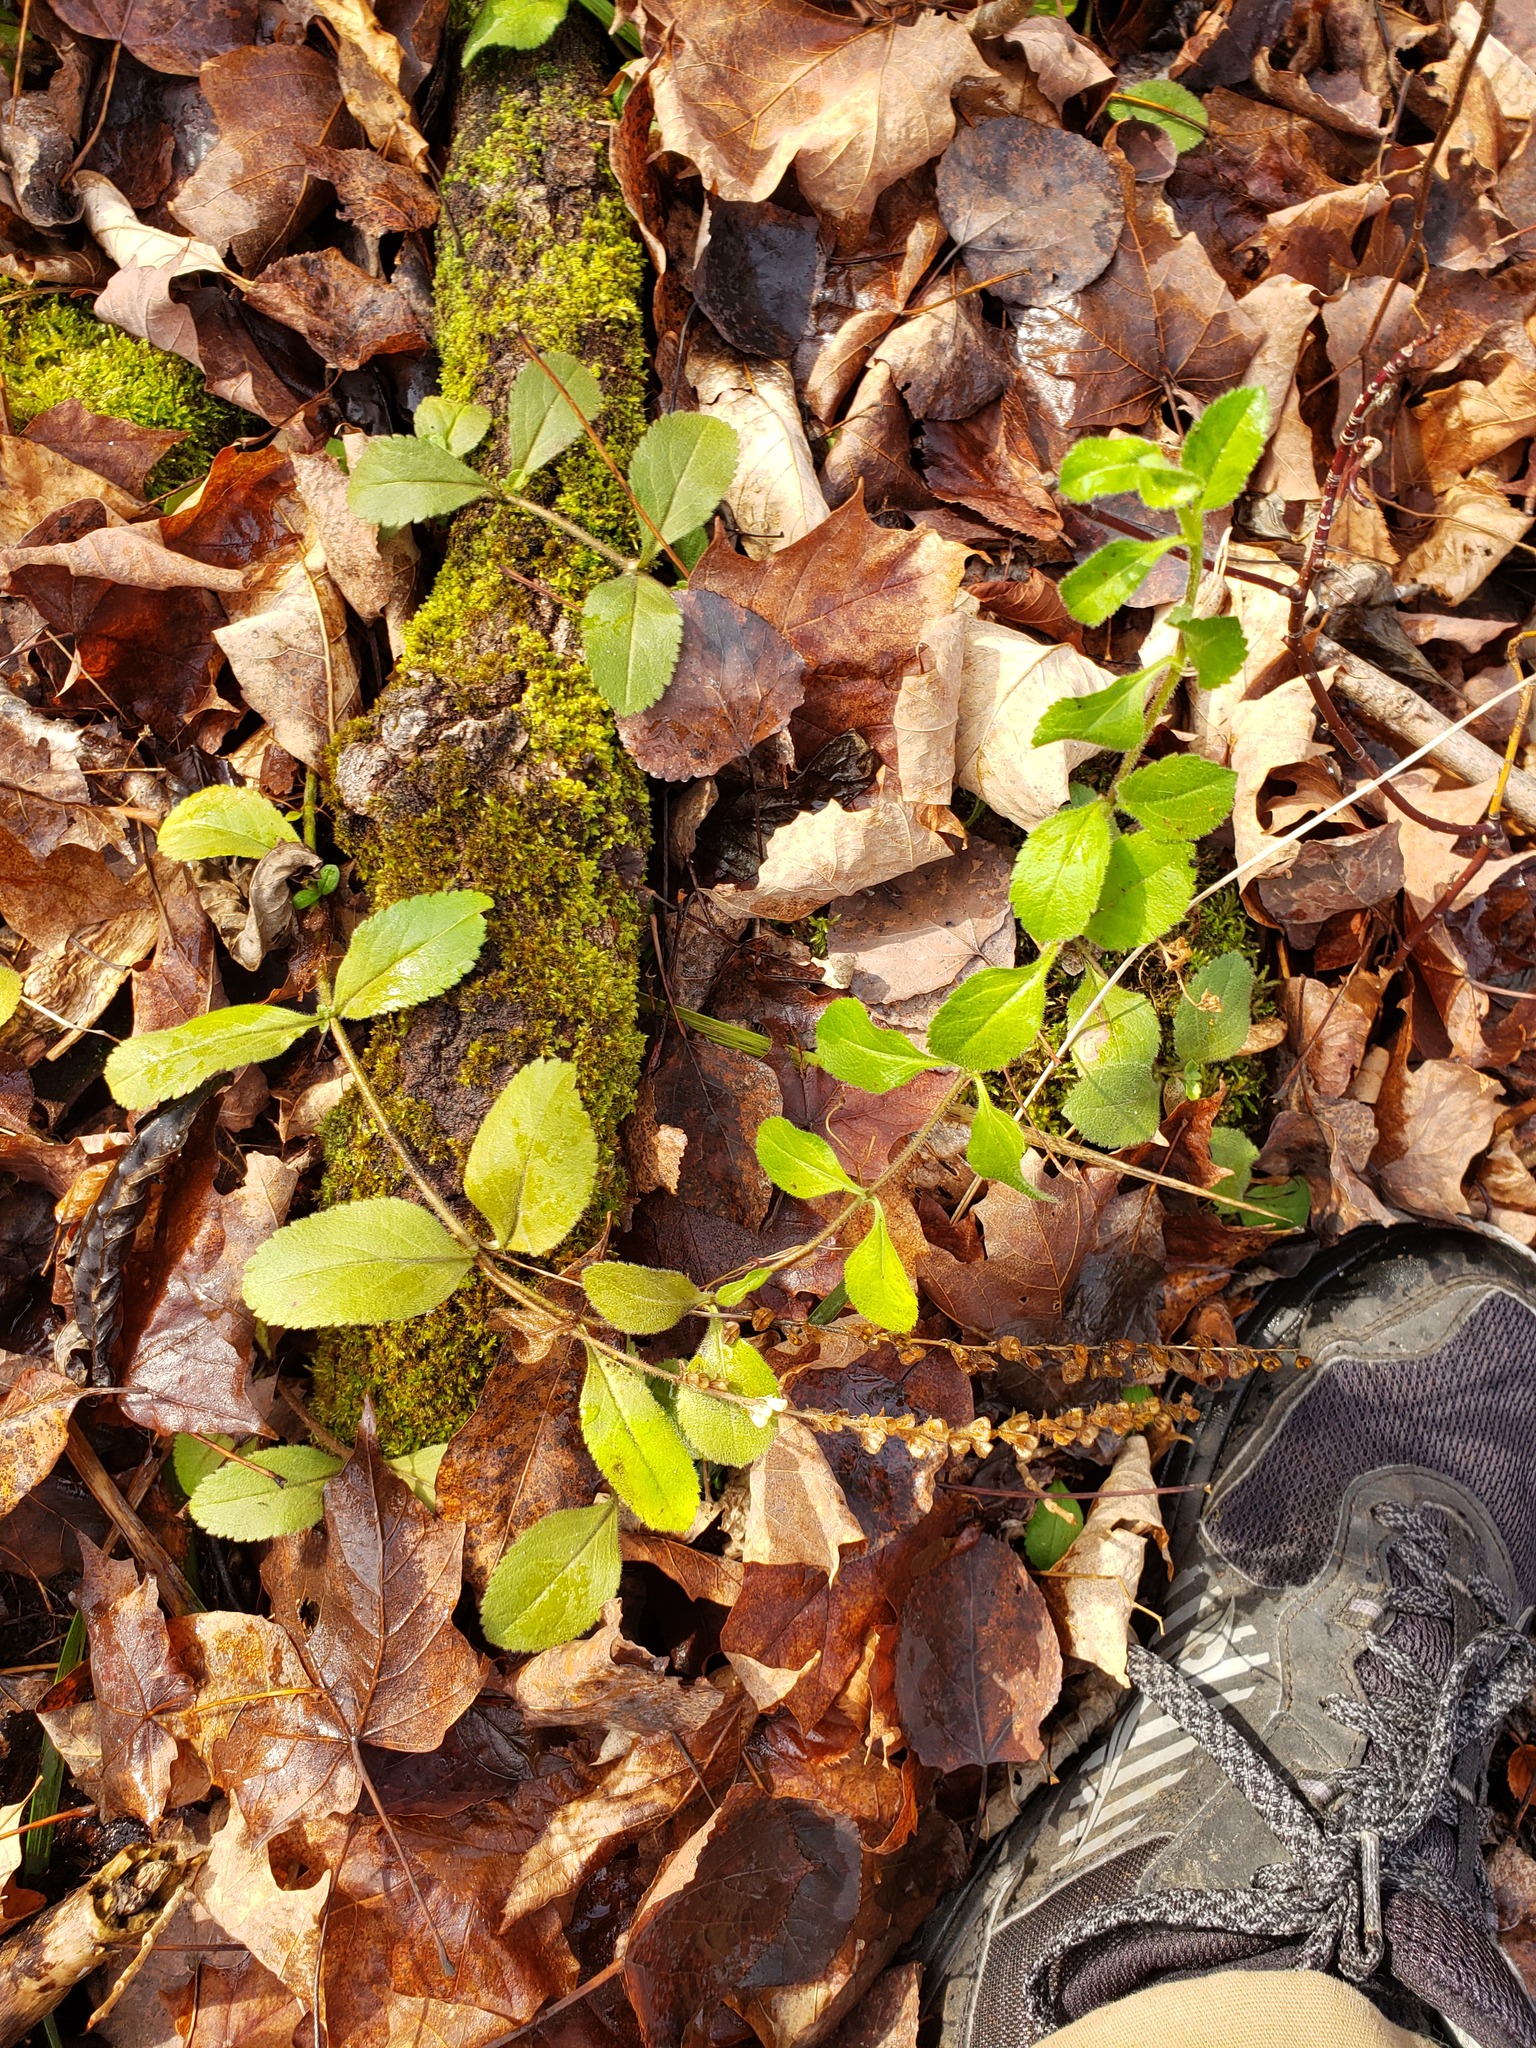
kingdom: Plantae
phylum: Tracheophyta
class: Magnoliopsida
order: Lamiales
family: Plantaginaceae
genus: Veronica
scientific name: Veronica officinalis
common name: Common speedwell
